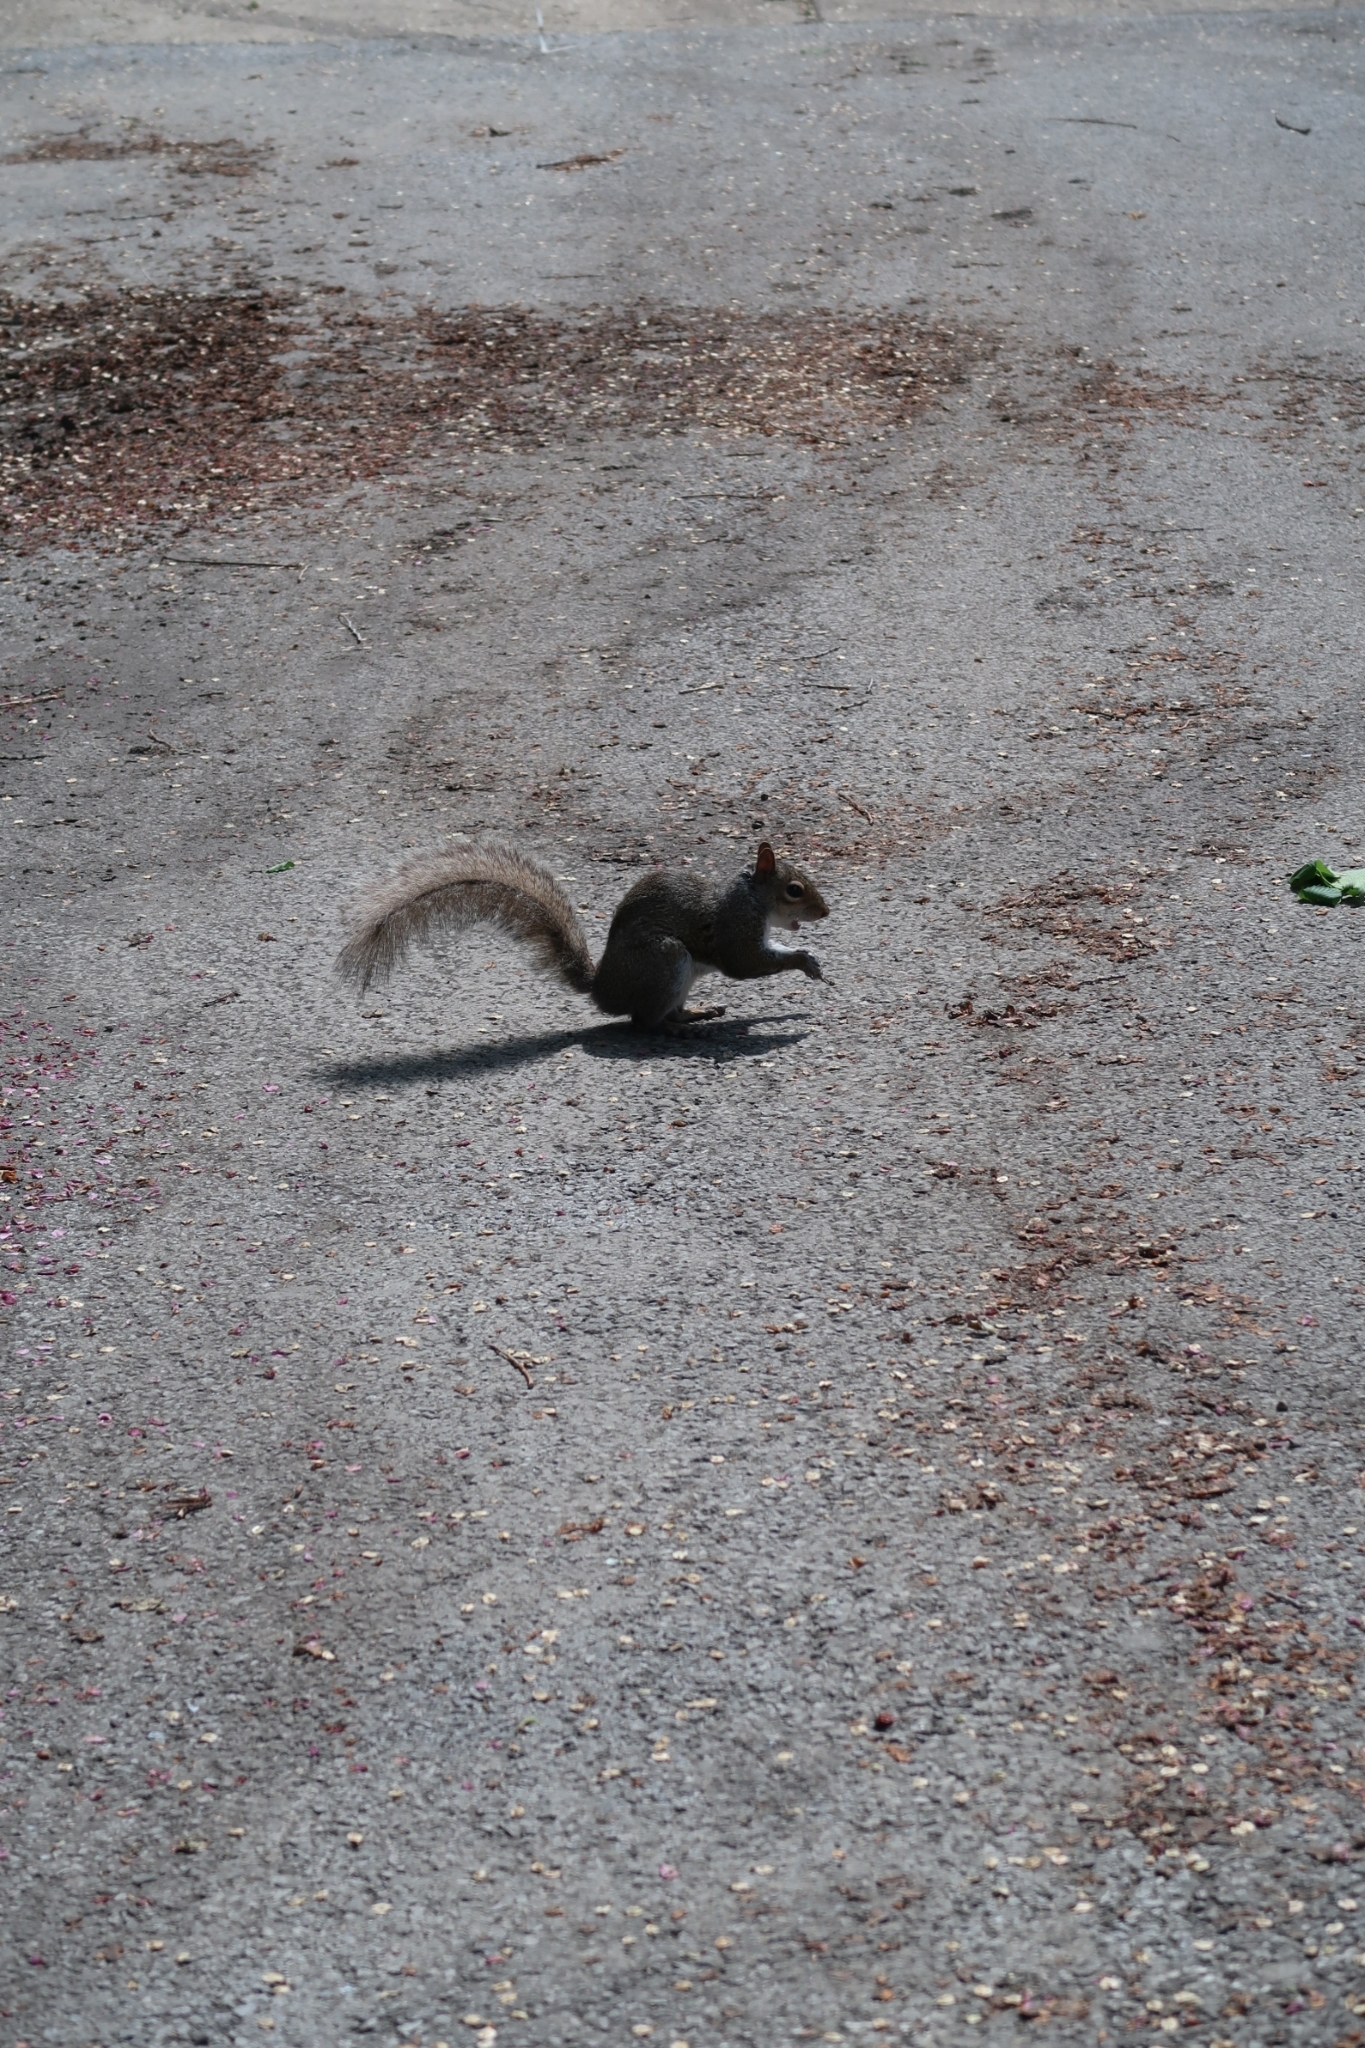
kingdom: Animalia
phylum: Chordata
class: Mammalia
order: Rodentia
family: Sciuridae
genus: Sciurus
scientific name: Sciurus carolinensis
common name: Eastern gray squirrel
